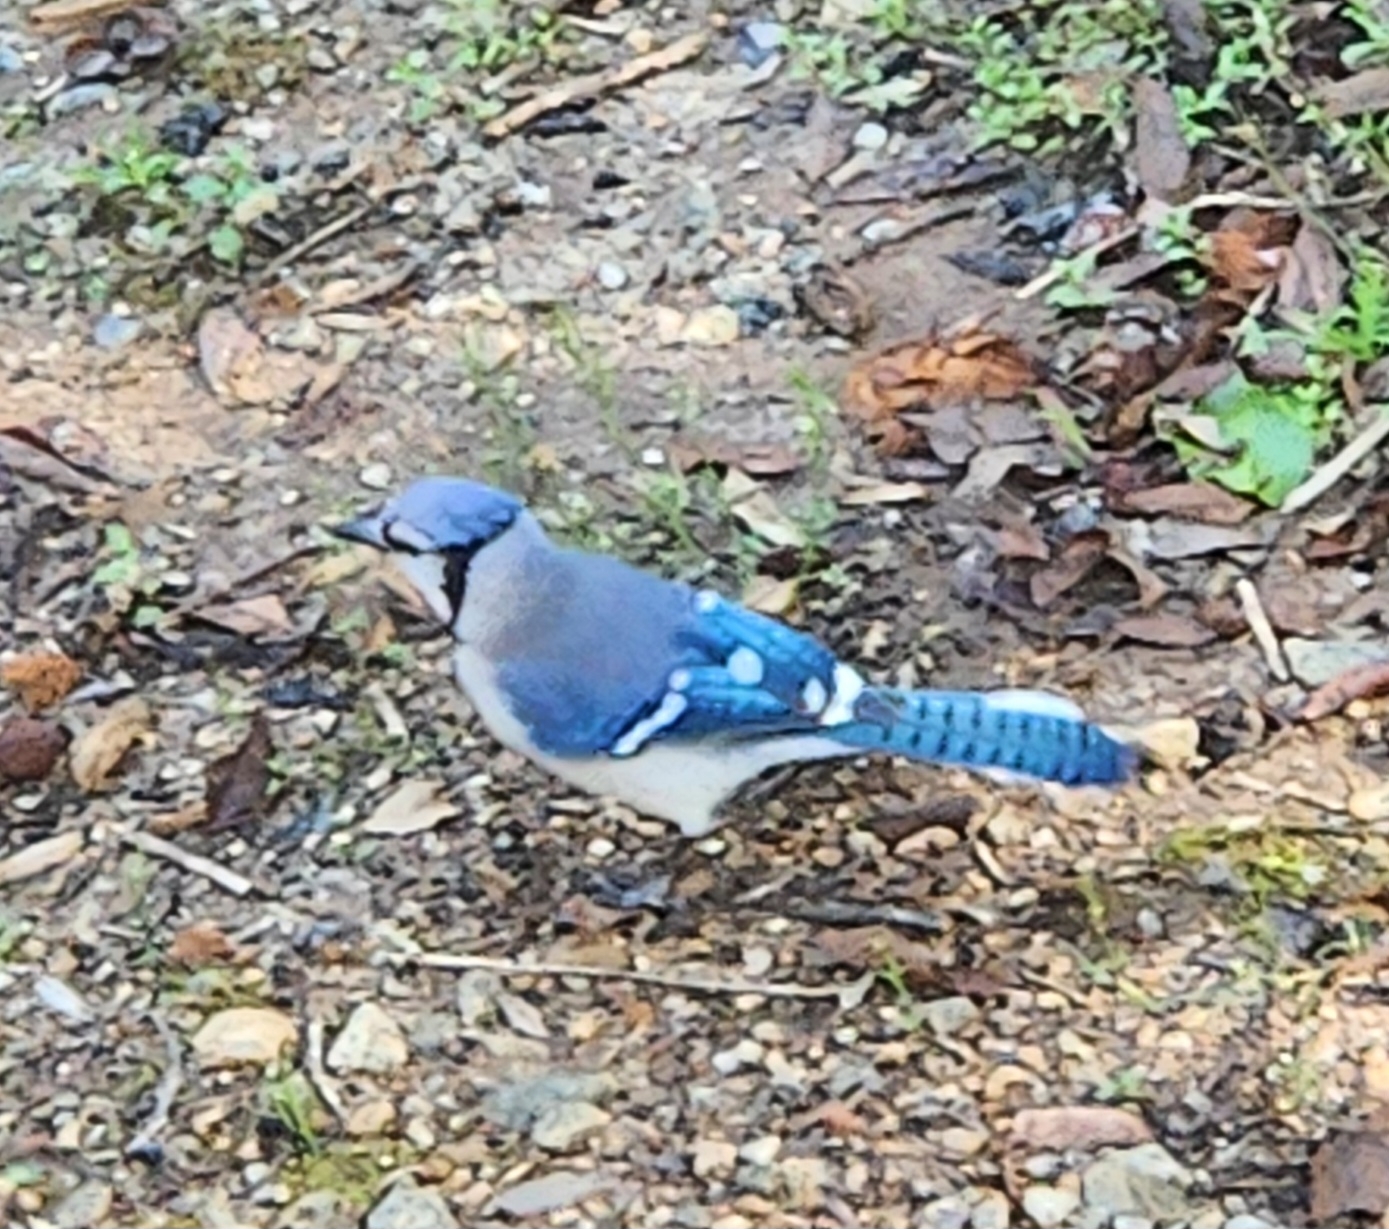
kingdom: Animalia
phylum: Chordata
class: Aves
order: Passeriformes
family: Corvidae
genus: Cyanocitta
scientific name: Cyanocitta cristata
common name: Blue jay
